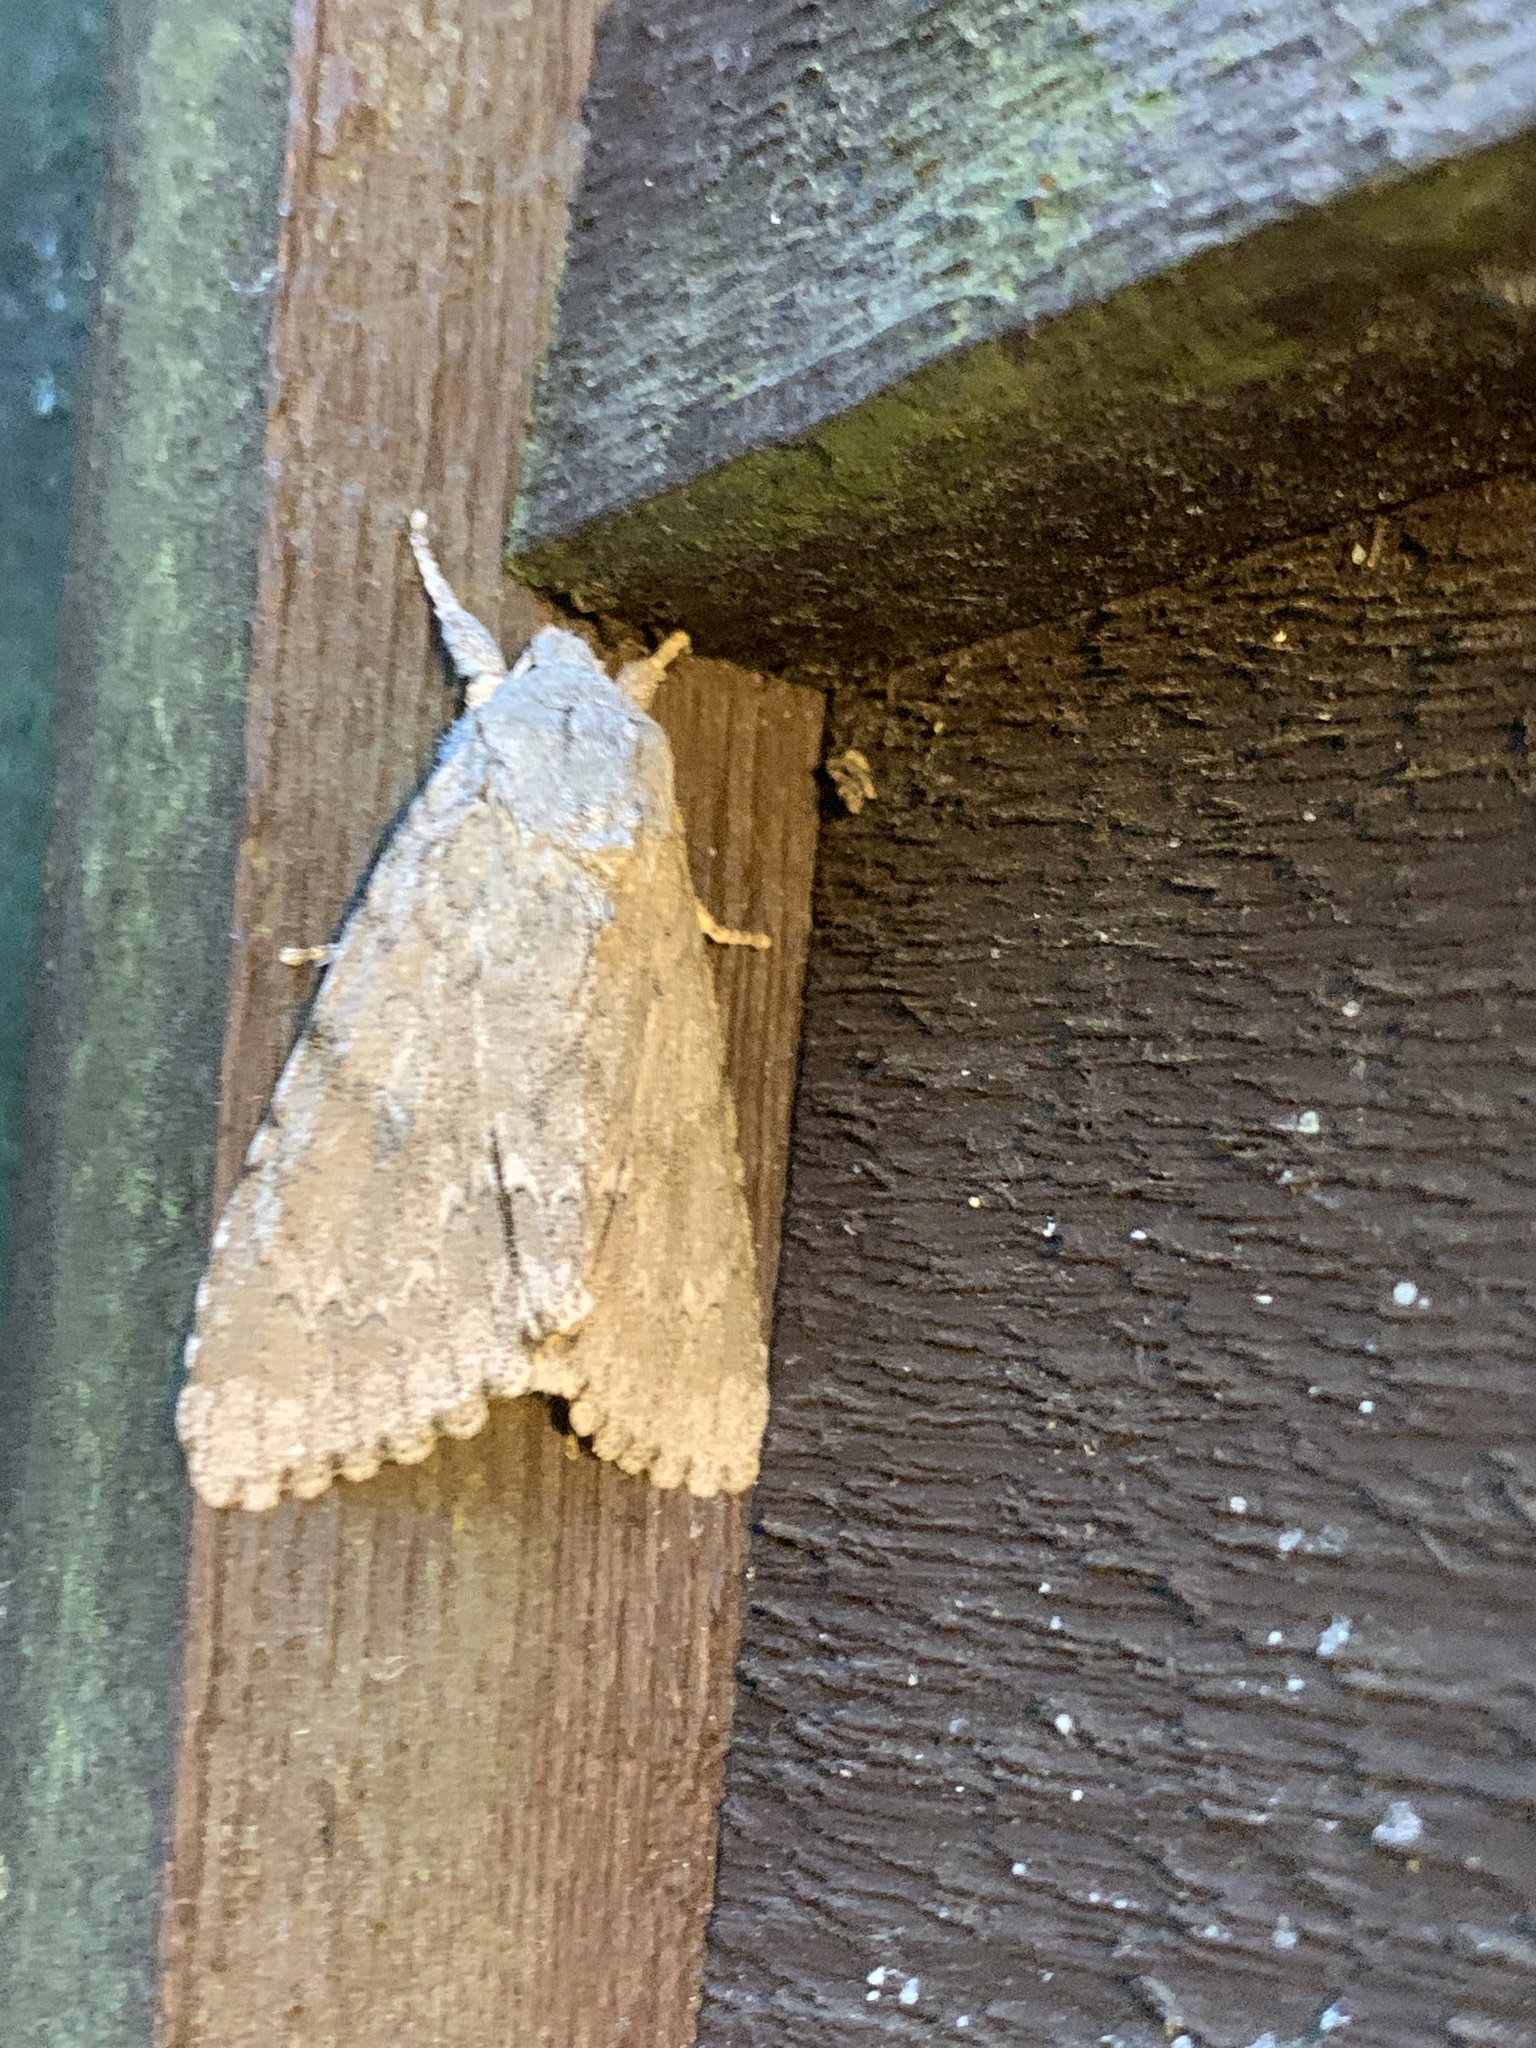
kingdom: Animalia
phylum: Arthropoda
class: Insecta
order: Lepidoptera
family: Noctuidae
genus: Acronicta
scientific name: Acronicta americana
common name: American dagger
